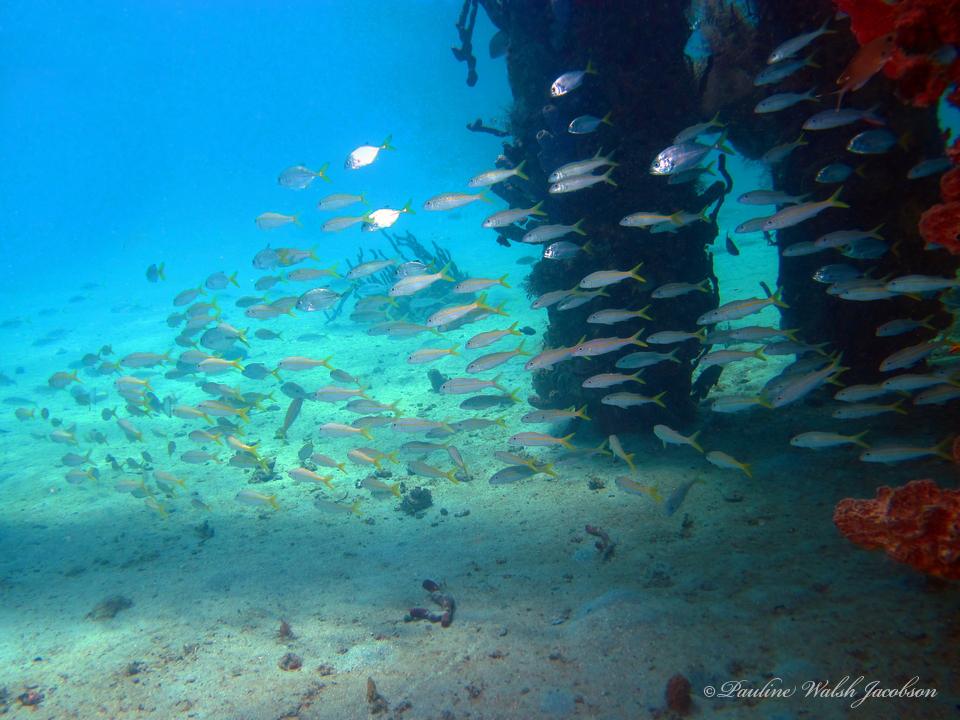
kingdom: Animalia
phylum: Chordata
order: Perciformes
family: Mullidae
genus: Mulloidichthys
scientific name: Mulloidichthys martinicus
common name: Yellow goatfish
